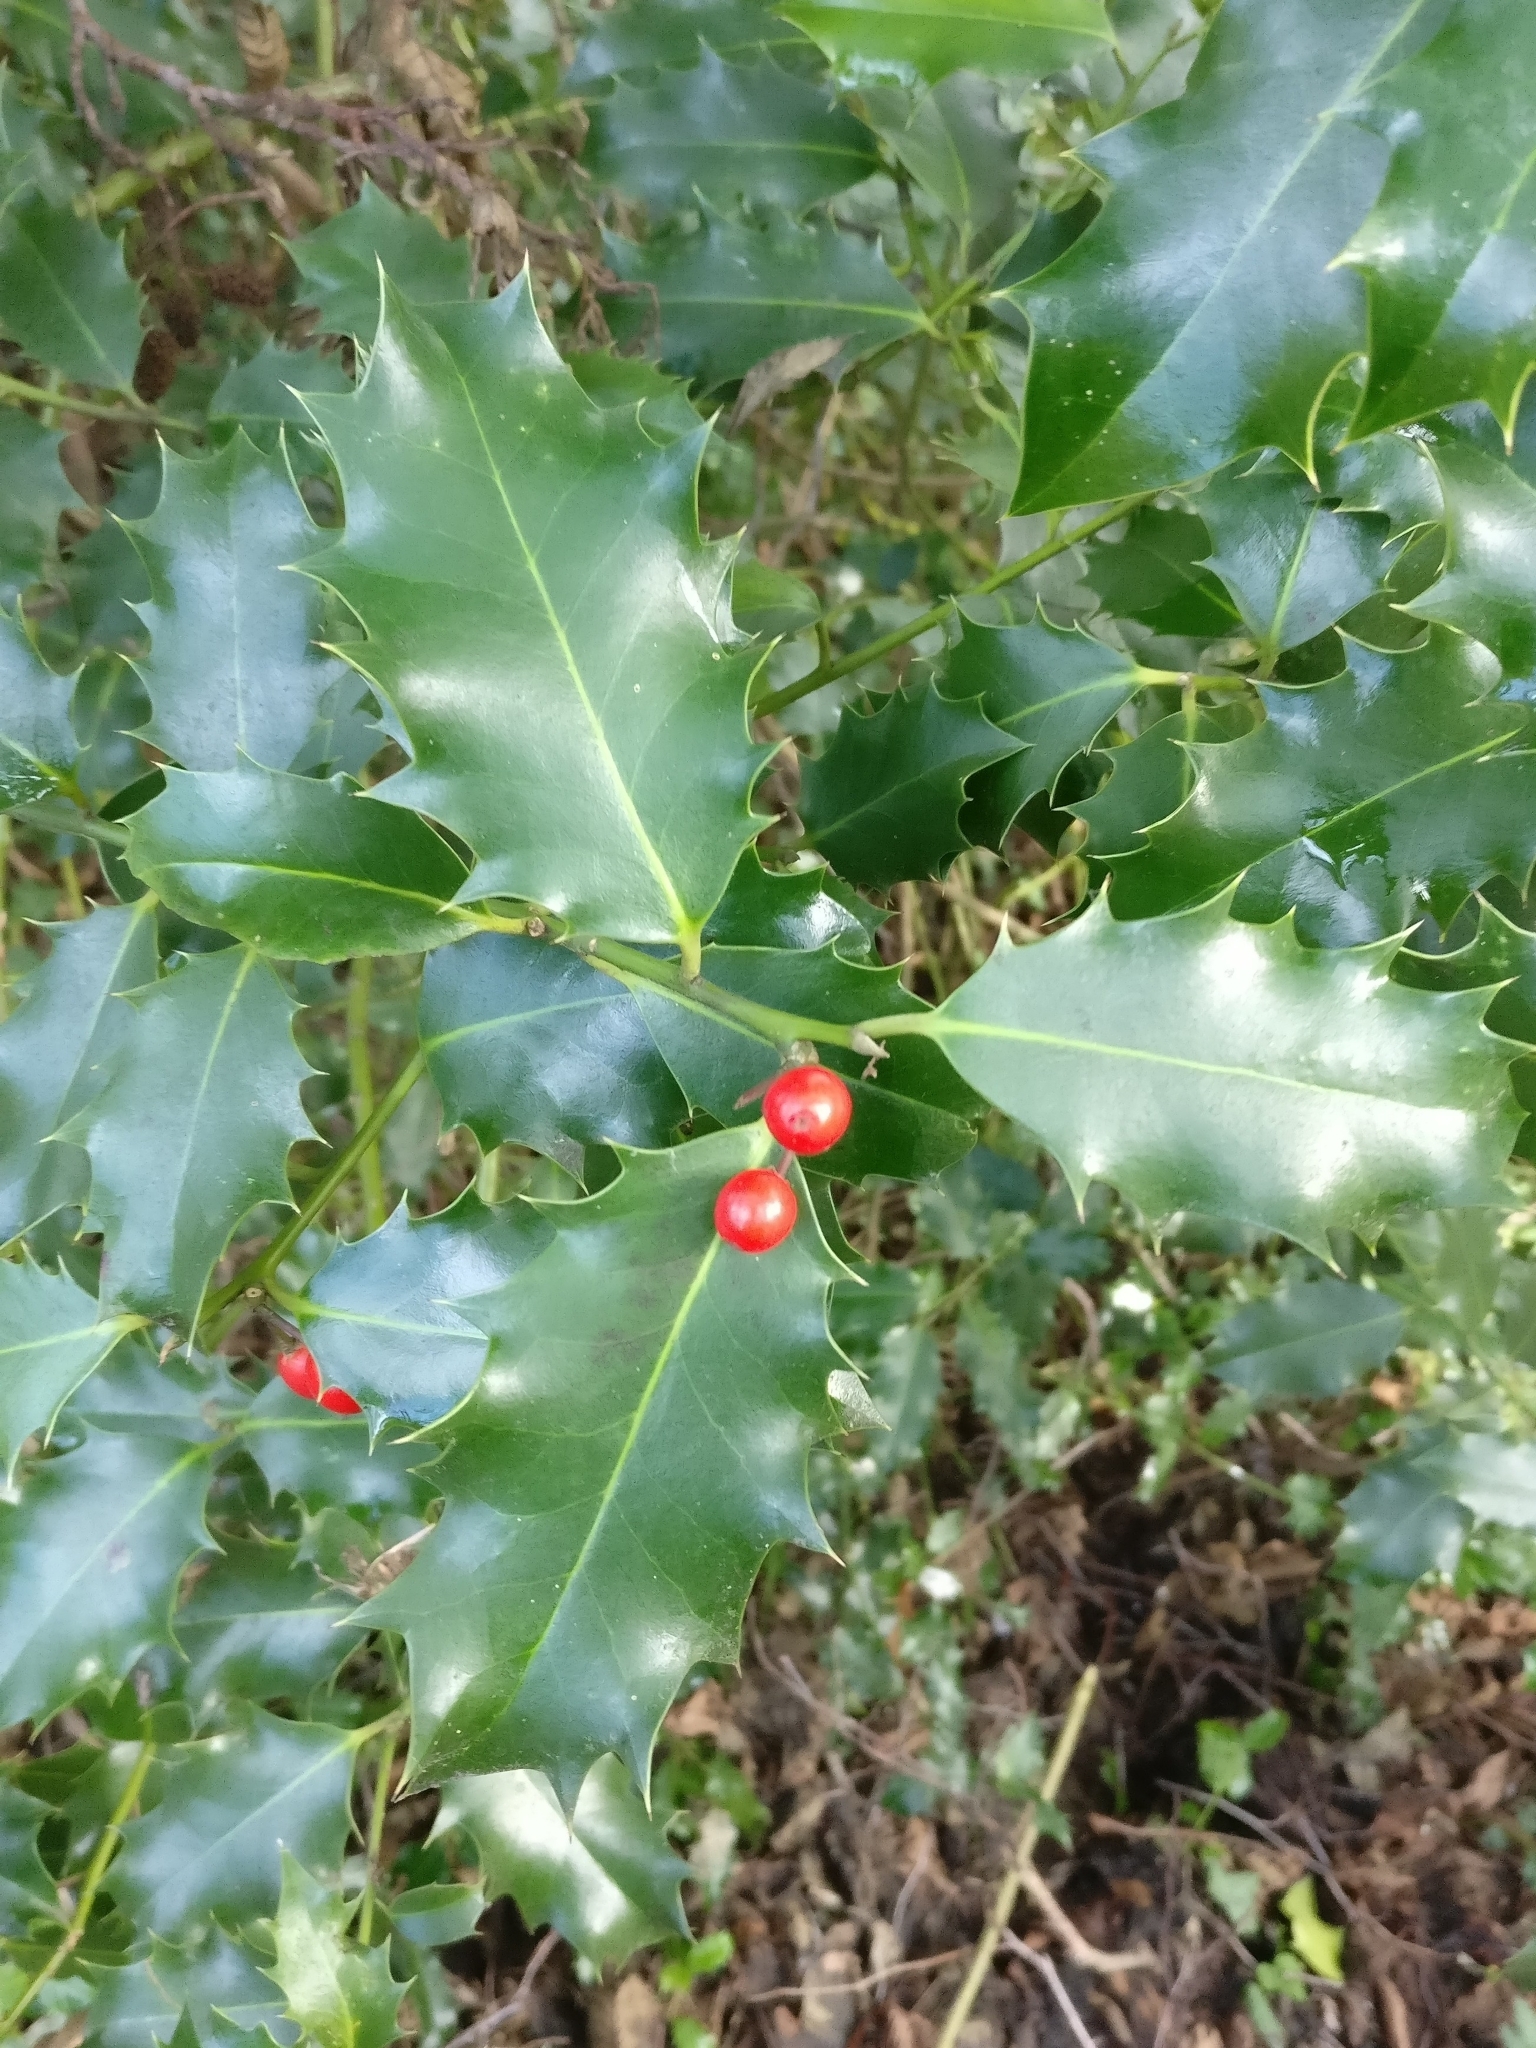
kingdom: Plantae
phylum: Tracheophyta
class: Magnoliopsida
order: Aquifoliales
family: Aquifoliaceae
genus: Ilex
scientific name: Ilex aquifolium
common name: English holly
